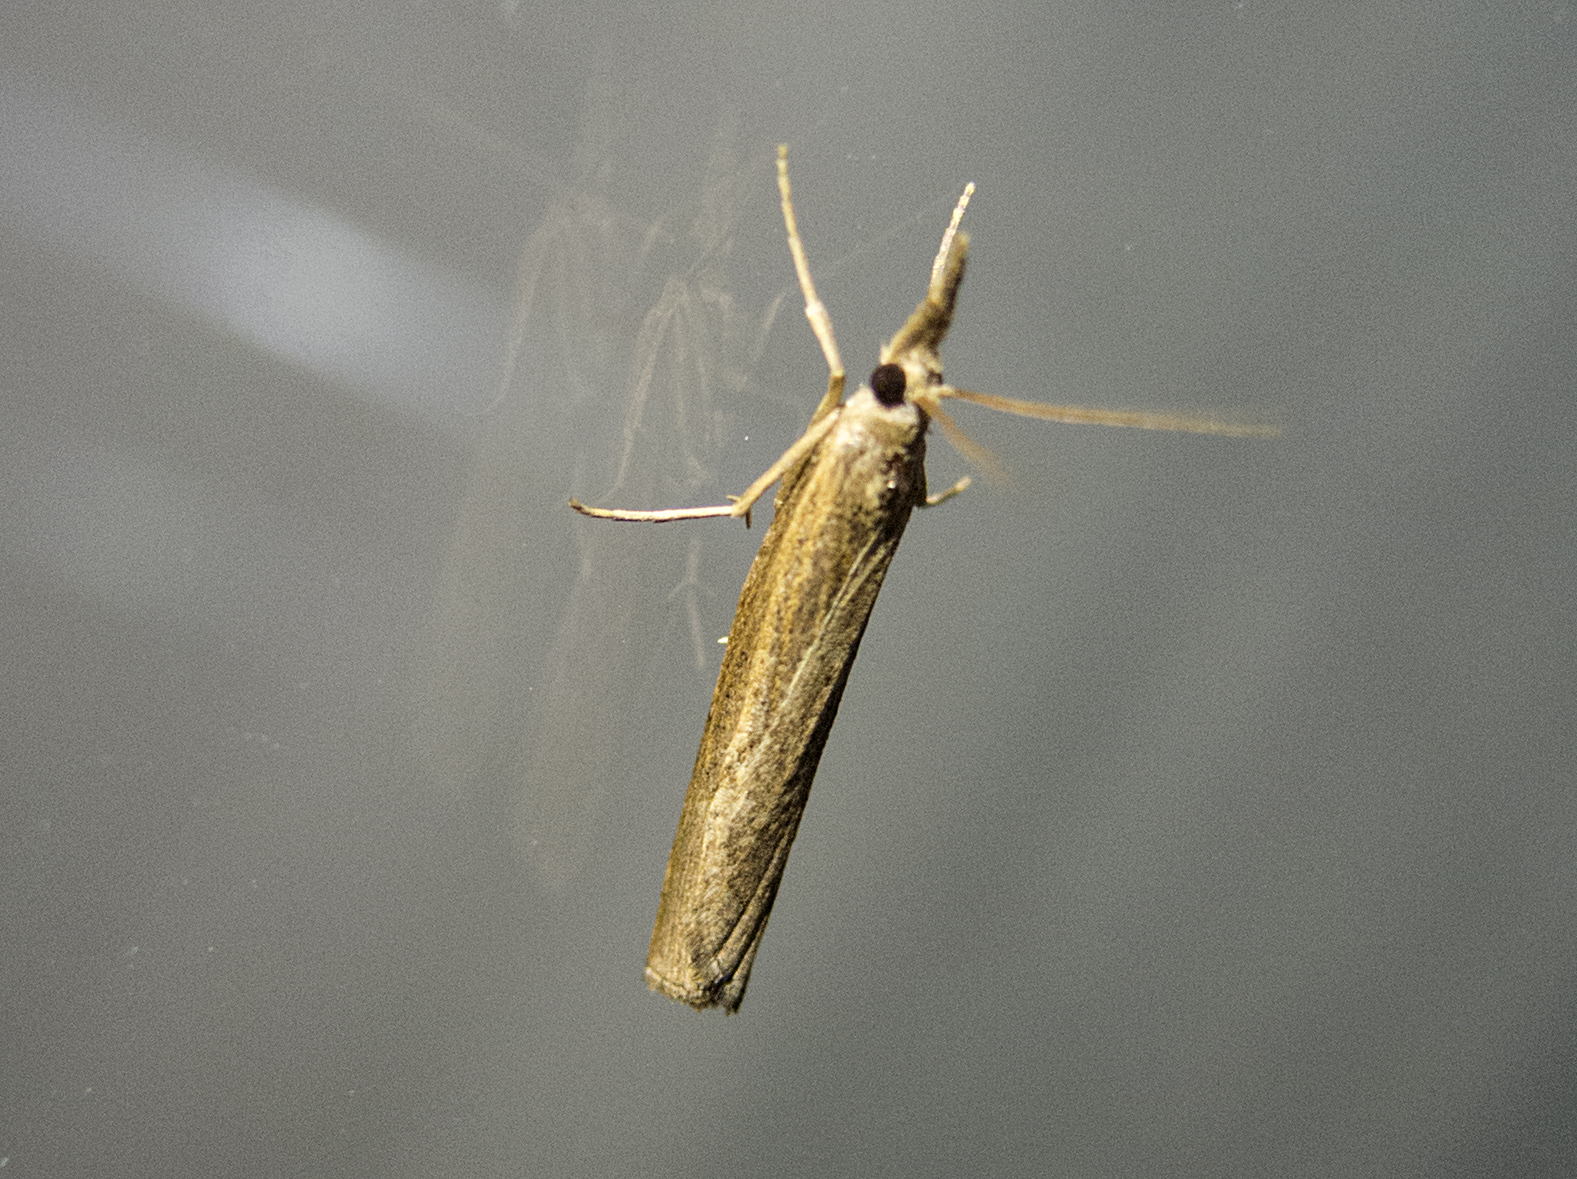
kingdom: Animalia
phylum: Arthropoda
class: Insecta
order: Lepidoptera
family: Crambidae
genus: Pediasia
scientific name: Pediasia contaminella
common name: Waste grass-veneer
